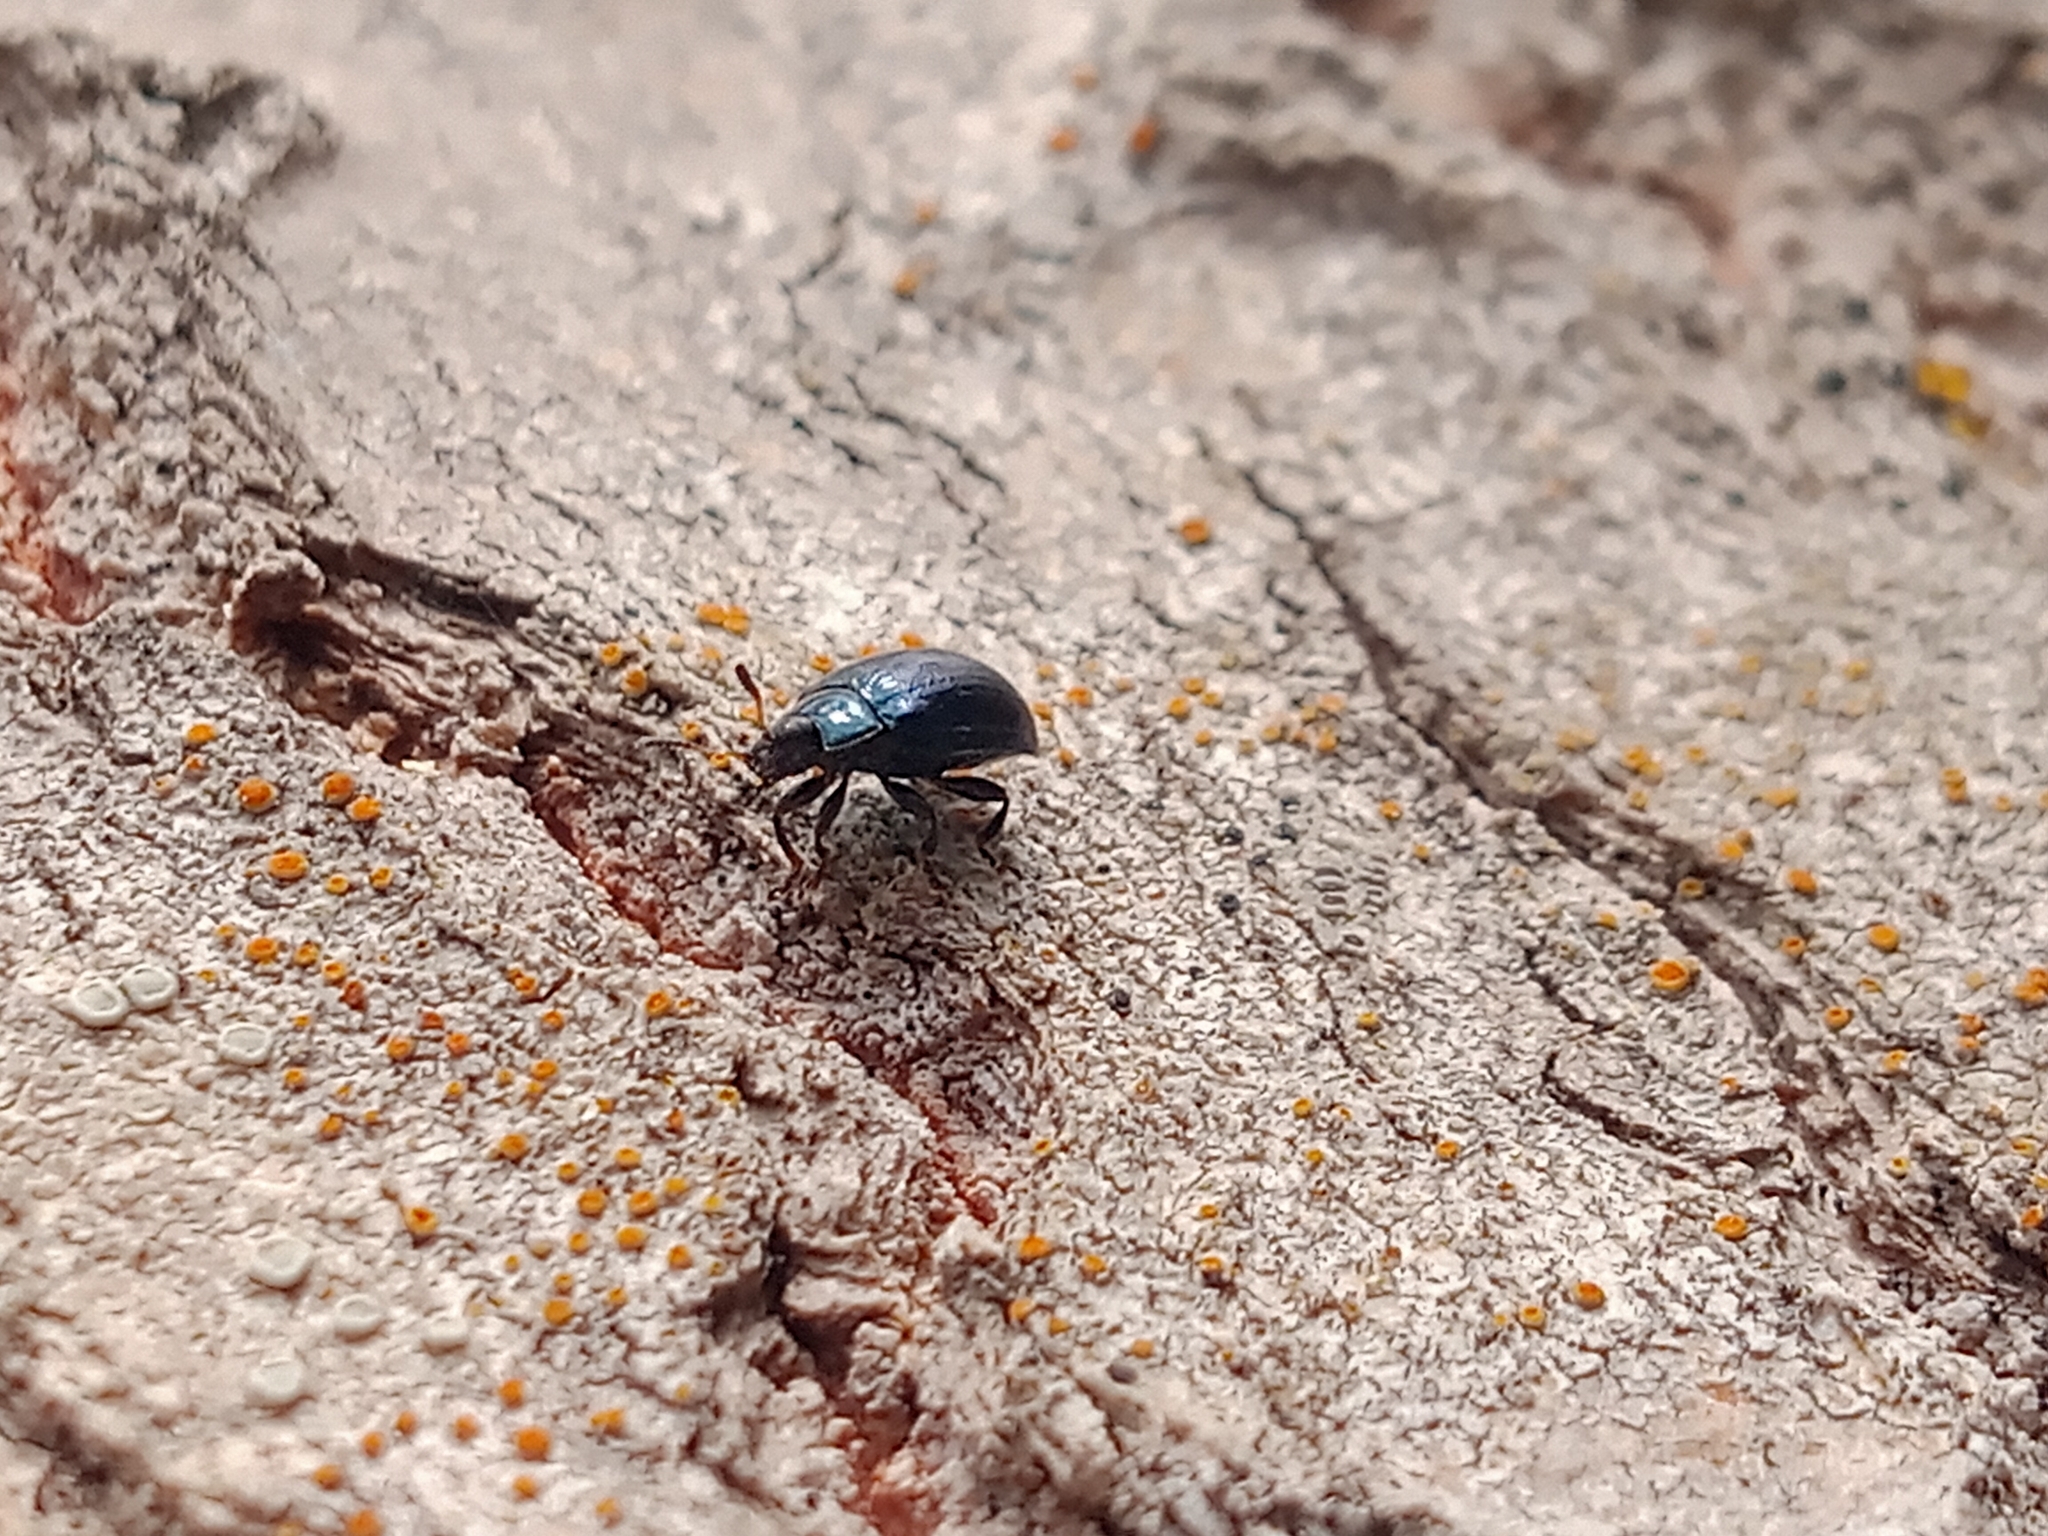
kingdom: Animalia
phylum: Arthropoda
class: Insecta
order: Coleoptera
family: Chrysomelidae
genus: Plagiodera
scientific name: Plagiodera versicolora
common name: Imported willow leaf beetle
